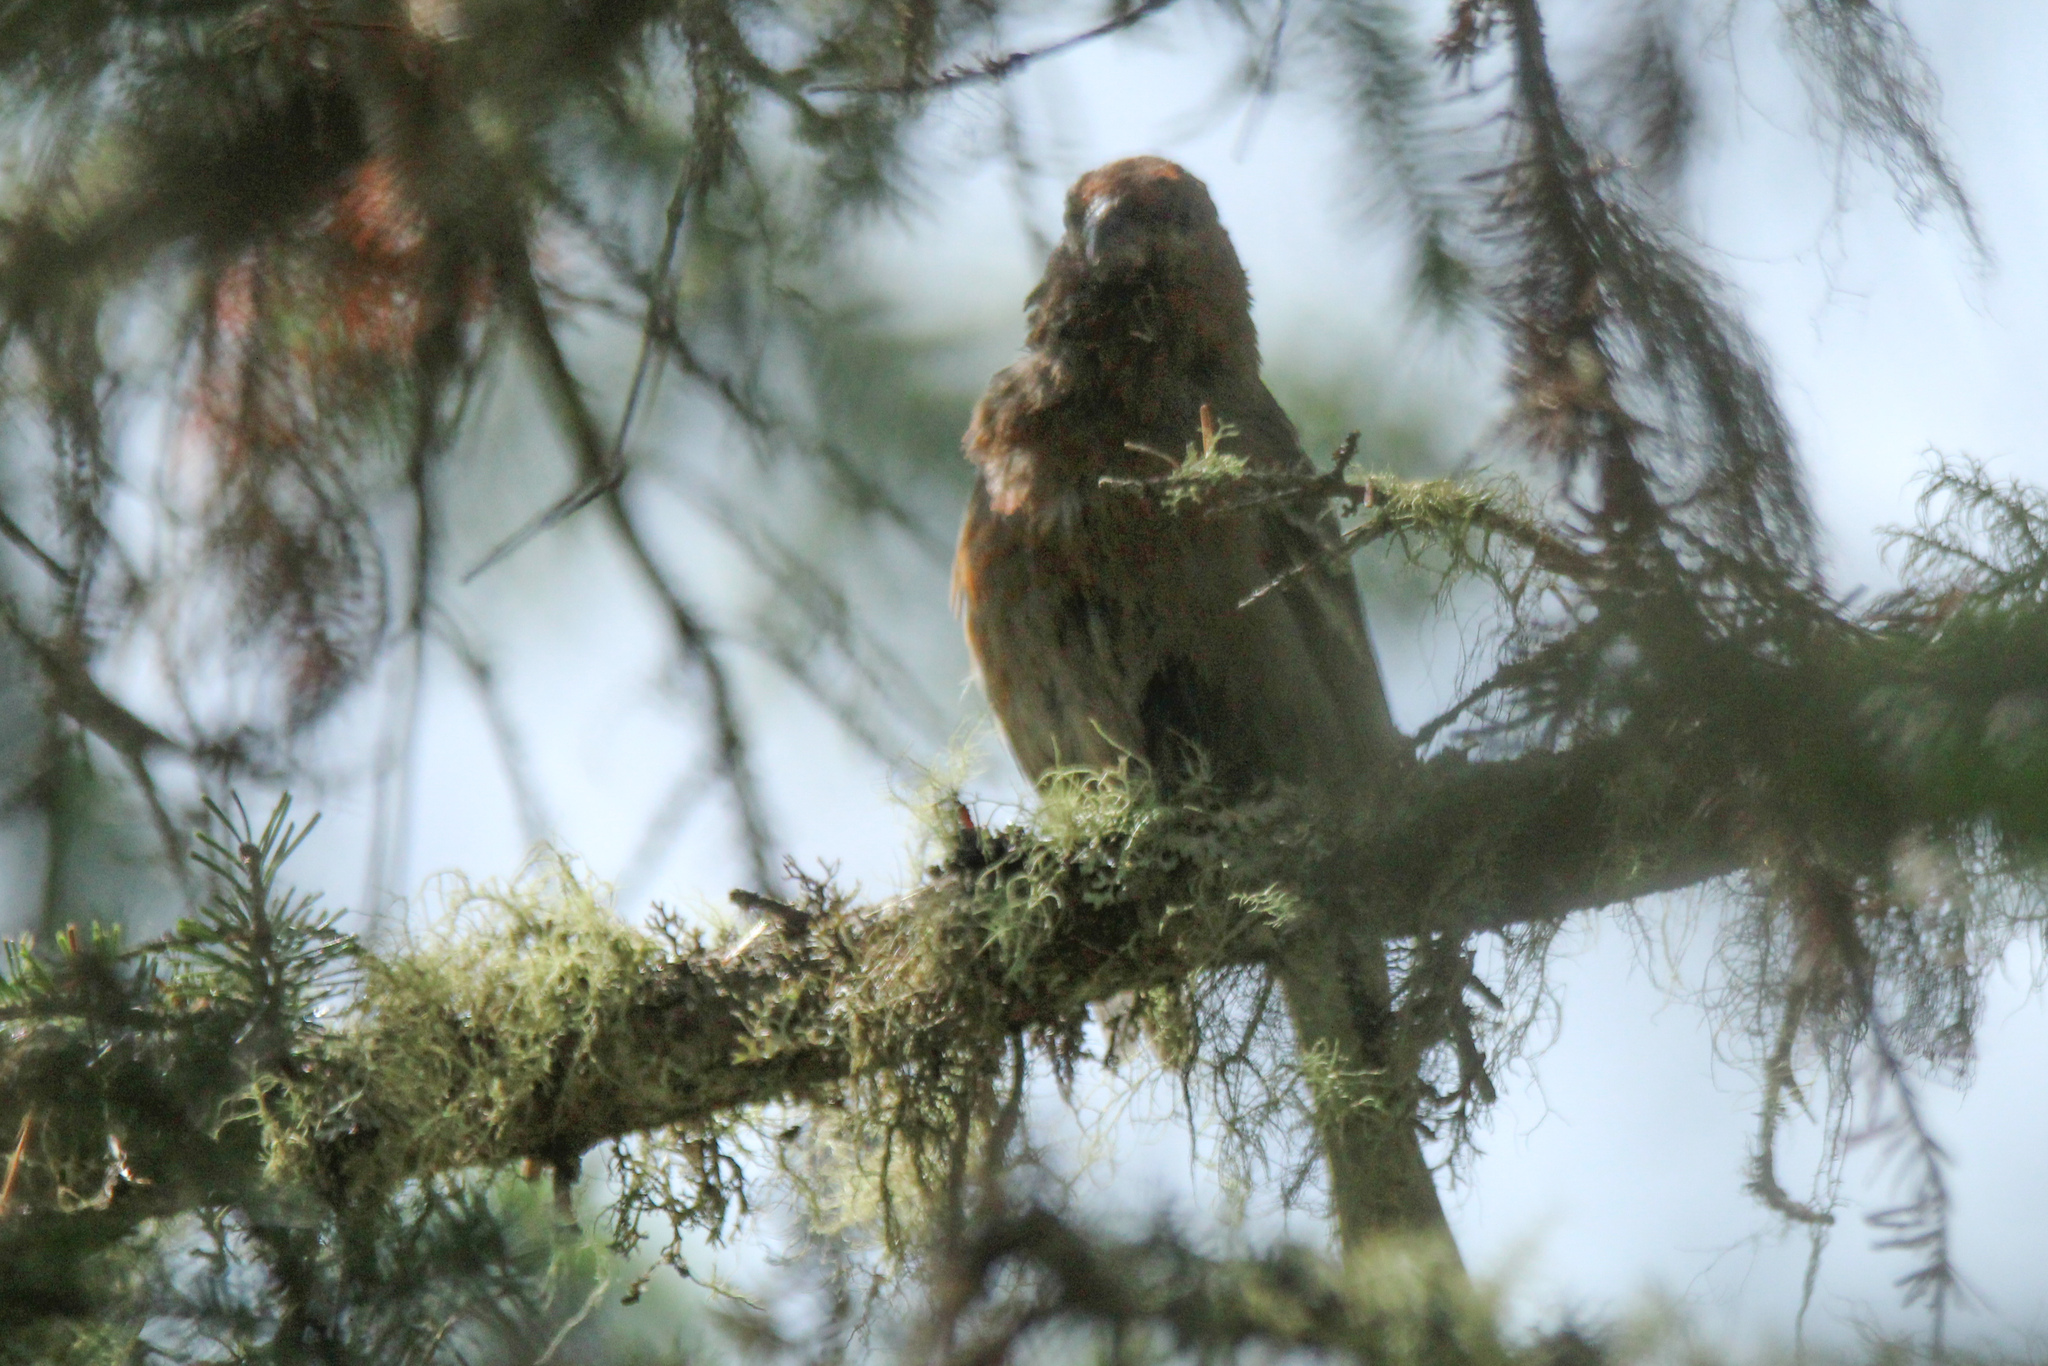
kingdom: Animalia
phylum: Chordata
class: Aves
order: Passeriformes
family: Fringillidae
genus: Pinicola
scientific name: Pinicola enucleator
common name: Pine grosbeak
